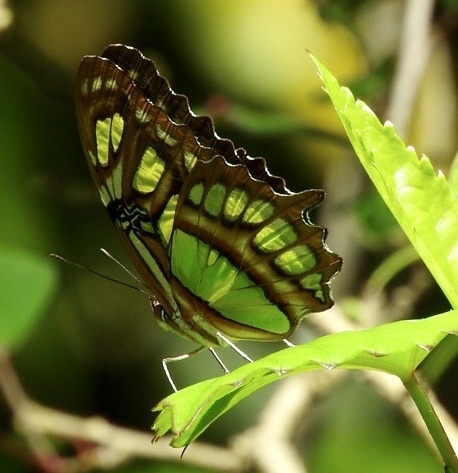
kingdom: Animalia
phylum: Arthropoda
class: Insecta
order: Lepidoptera
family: Nymphalidae
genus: Siproeta
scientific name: Siproeta stelenes
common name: Malachite
